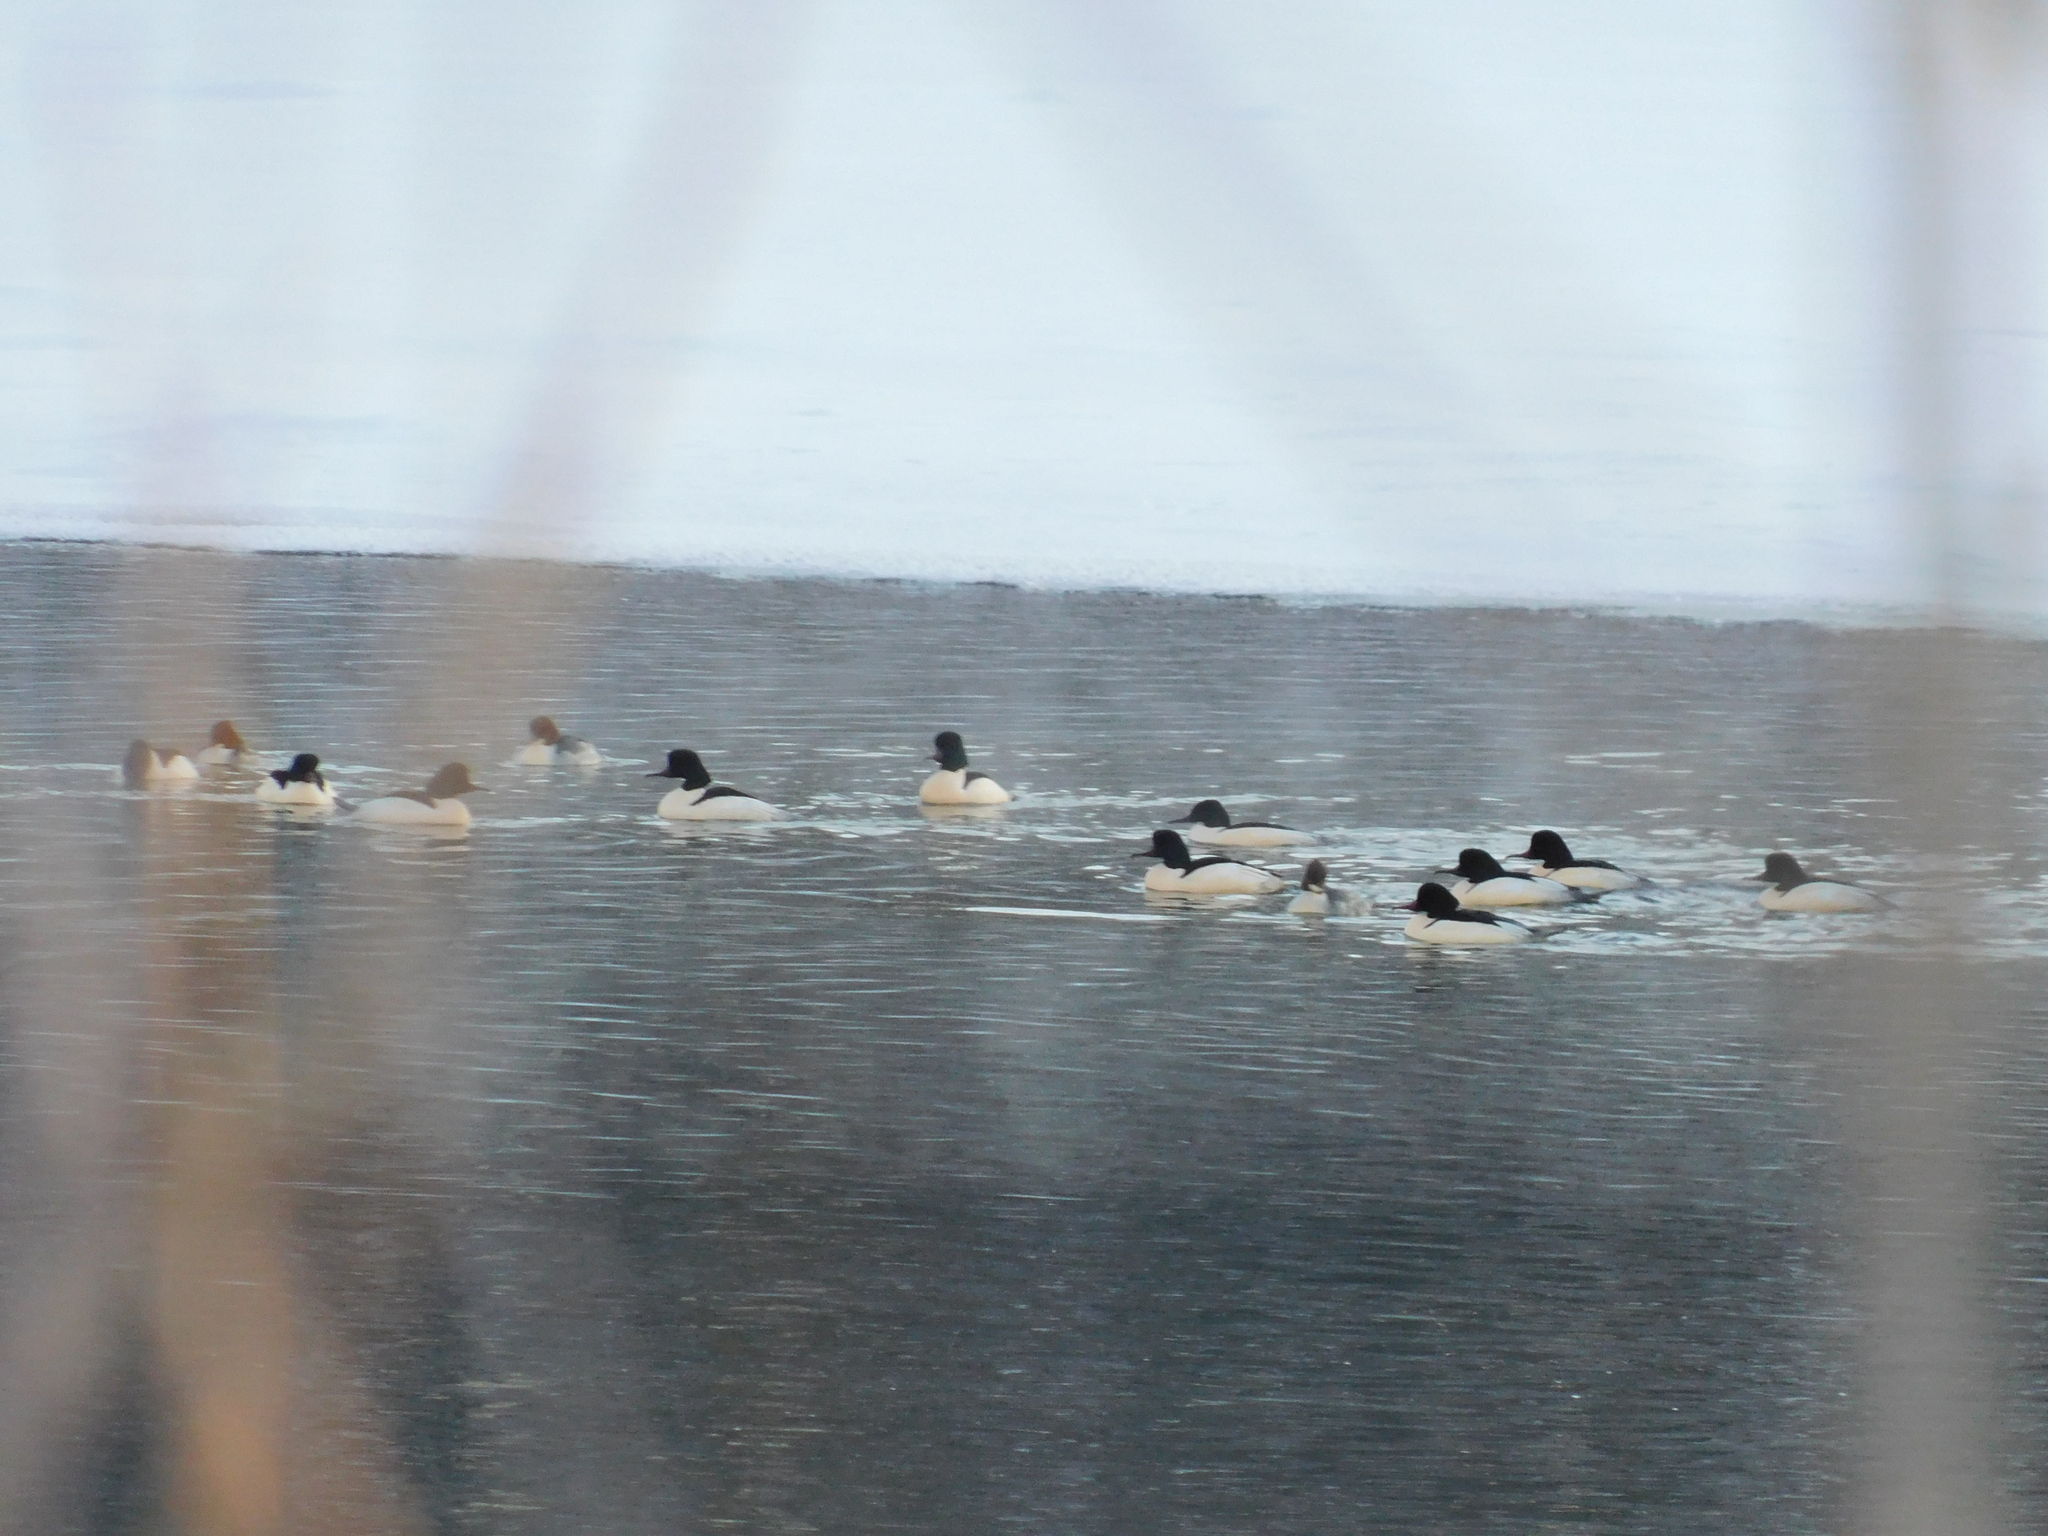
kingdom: Animalia
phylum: Chordata
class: Aves
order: Anseriformes
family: Anatidae
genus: Mergus
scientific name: Mergus merganser
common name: Common merganser
